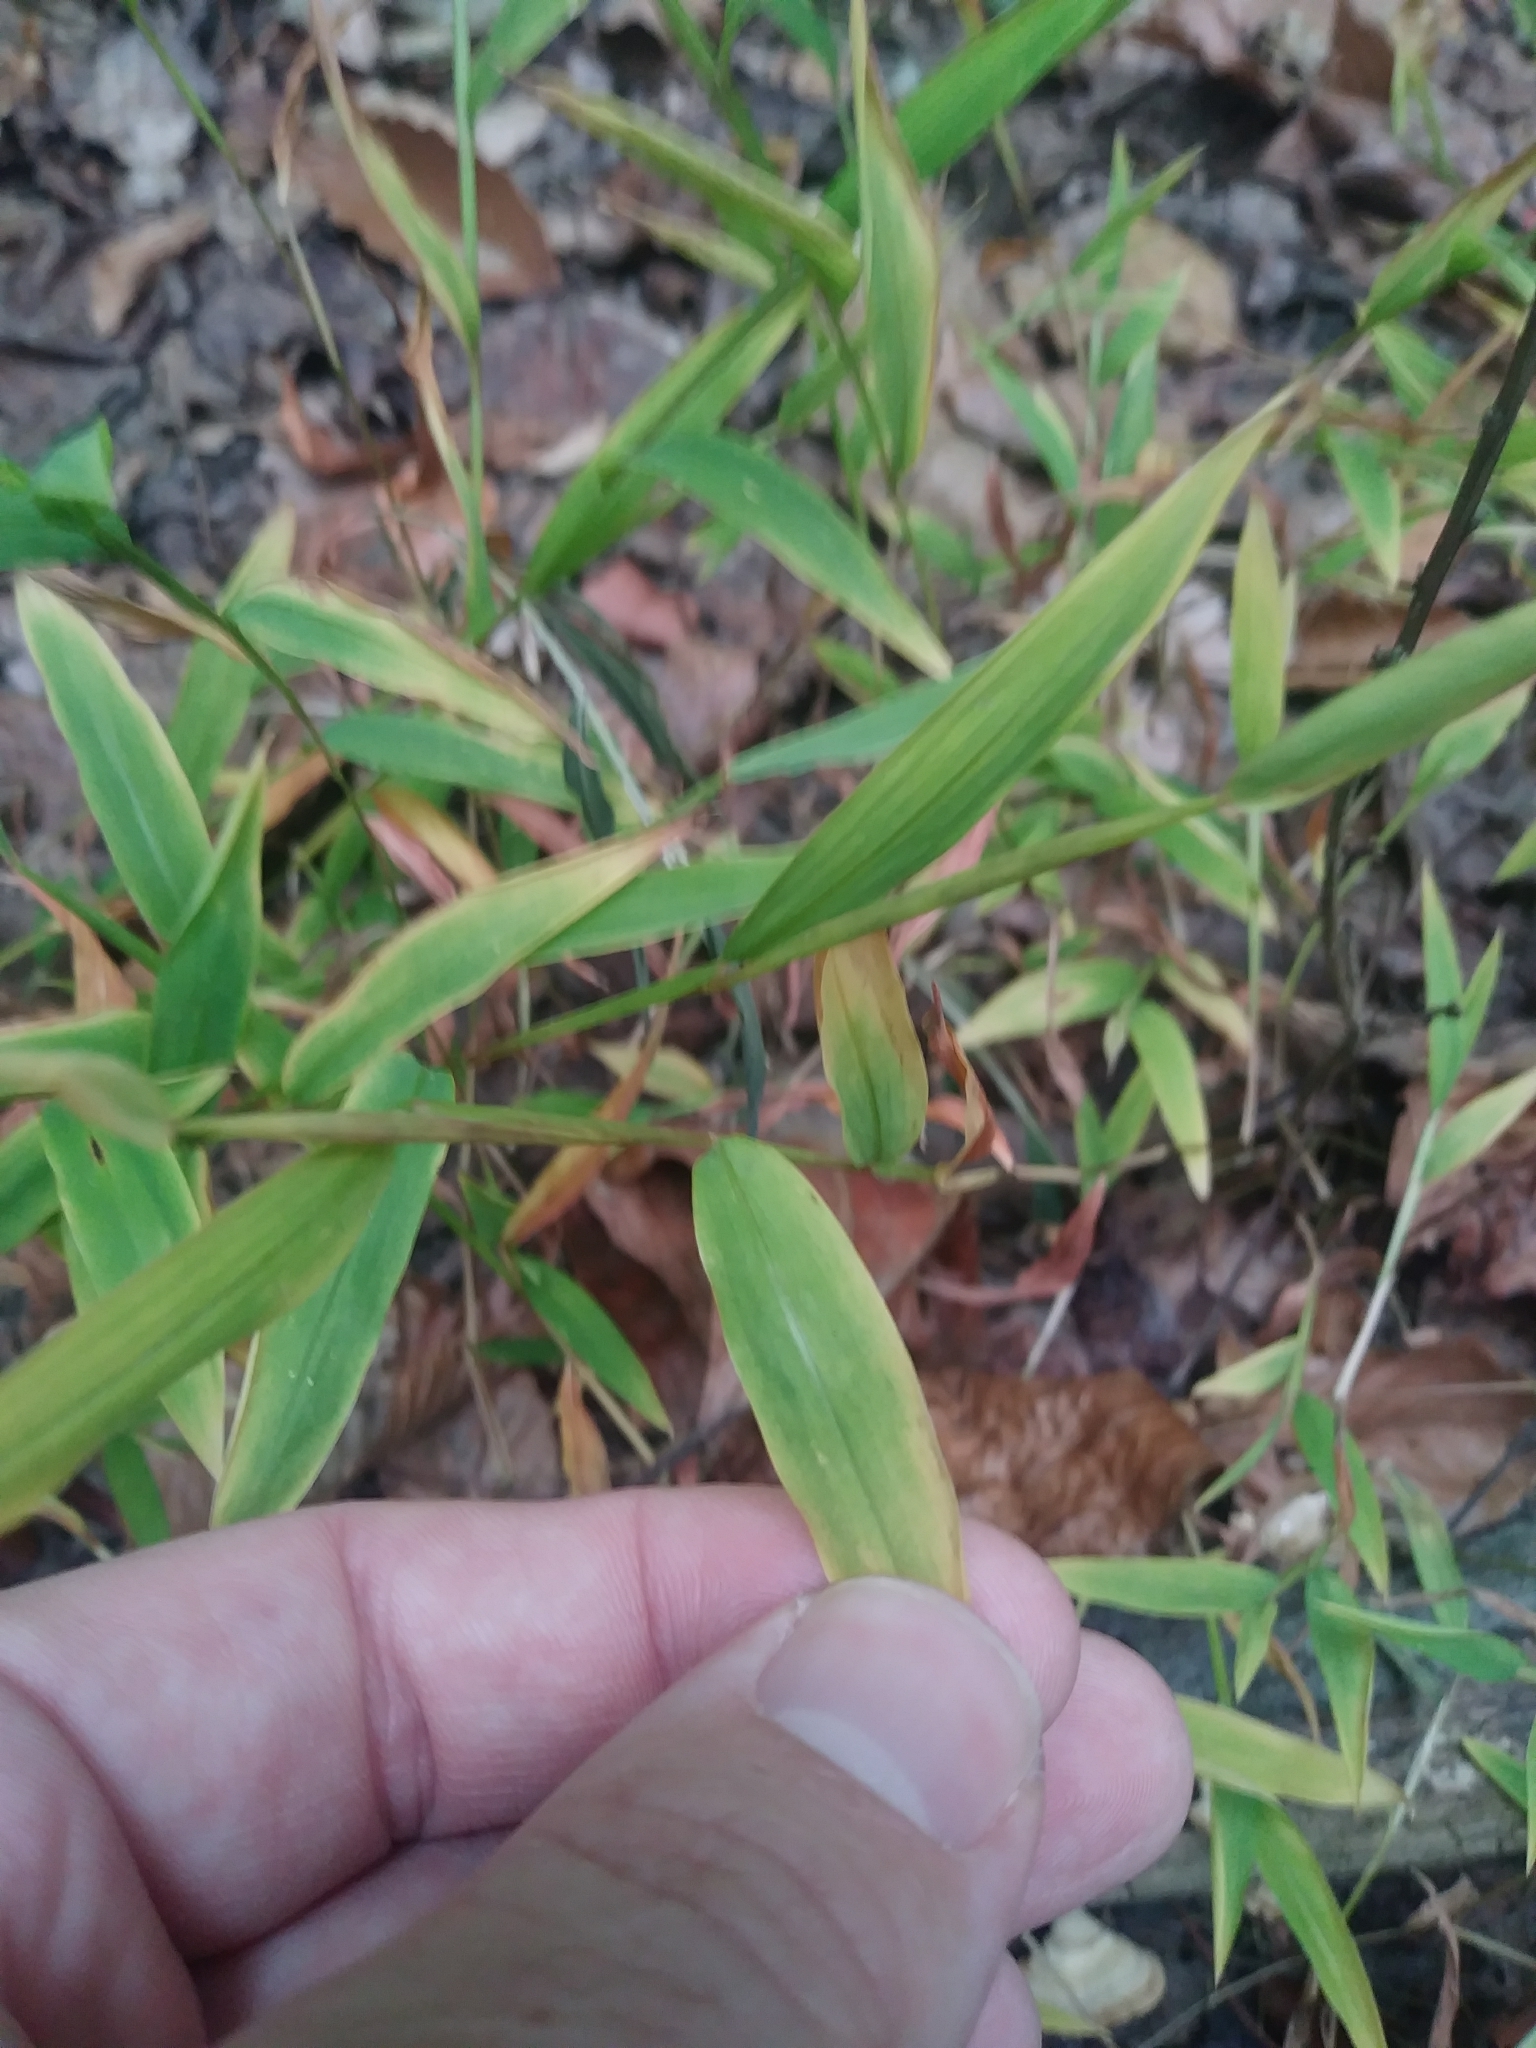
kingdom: Plantae
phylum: Tracheophyta
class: Liliopsida
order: Poales
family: Poaceae
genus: Microstegium
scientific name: Microstegium vimineum
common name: Japanese stiltgrass
